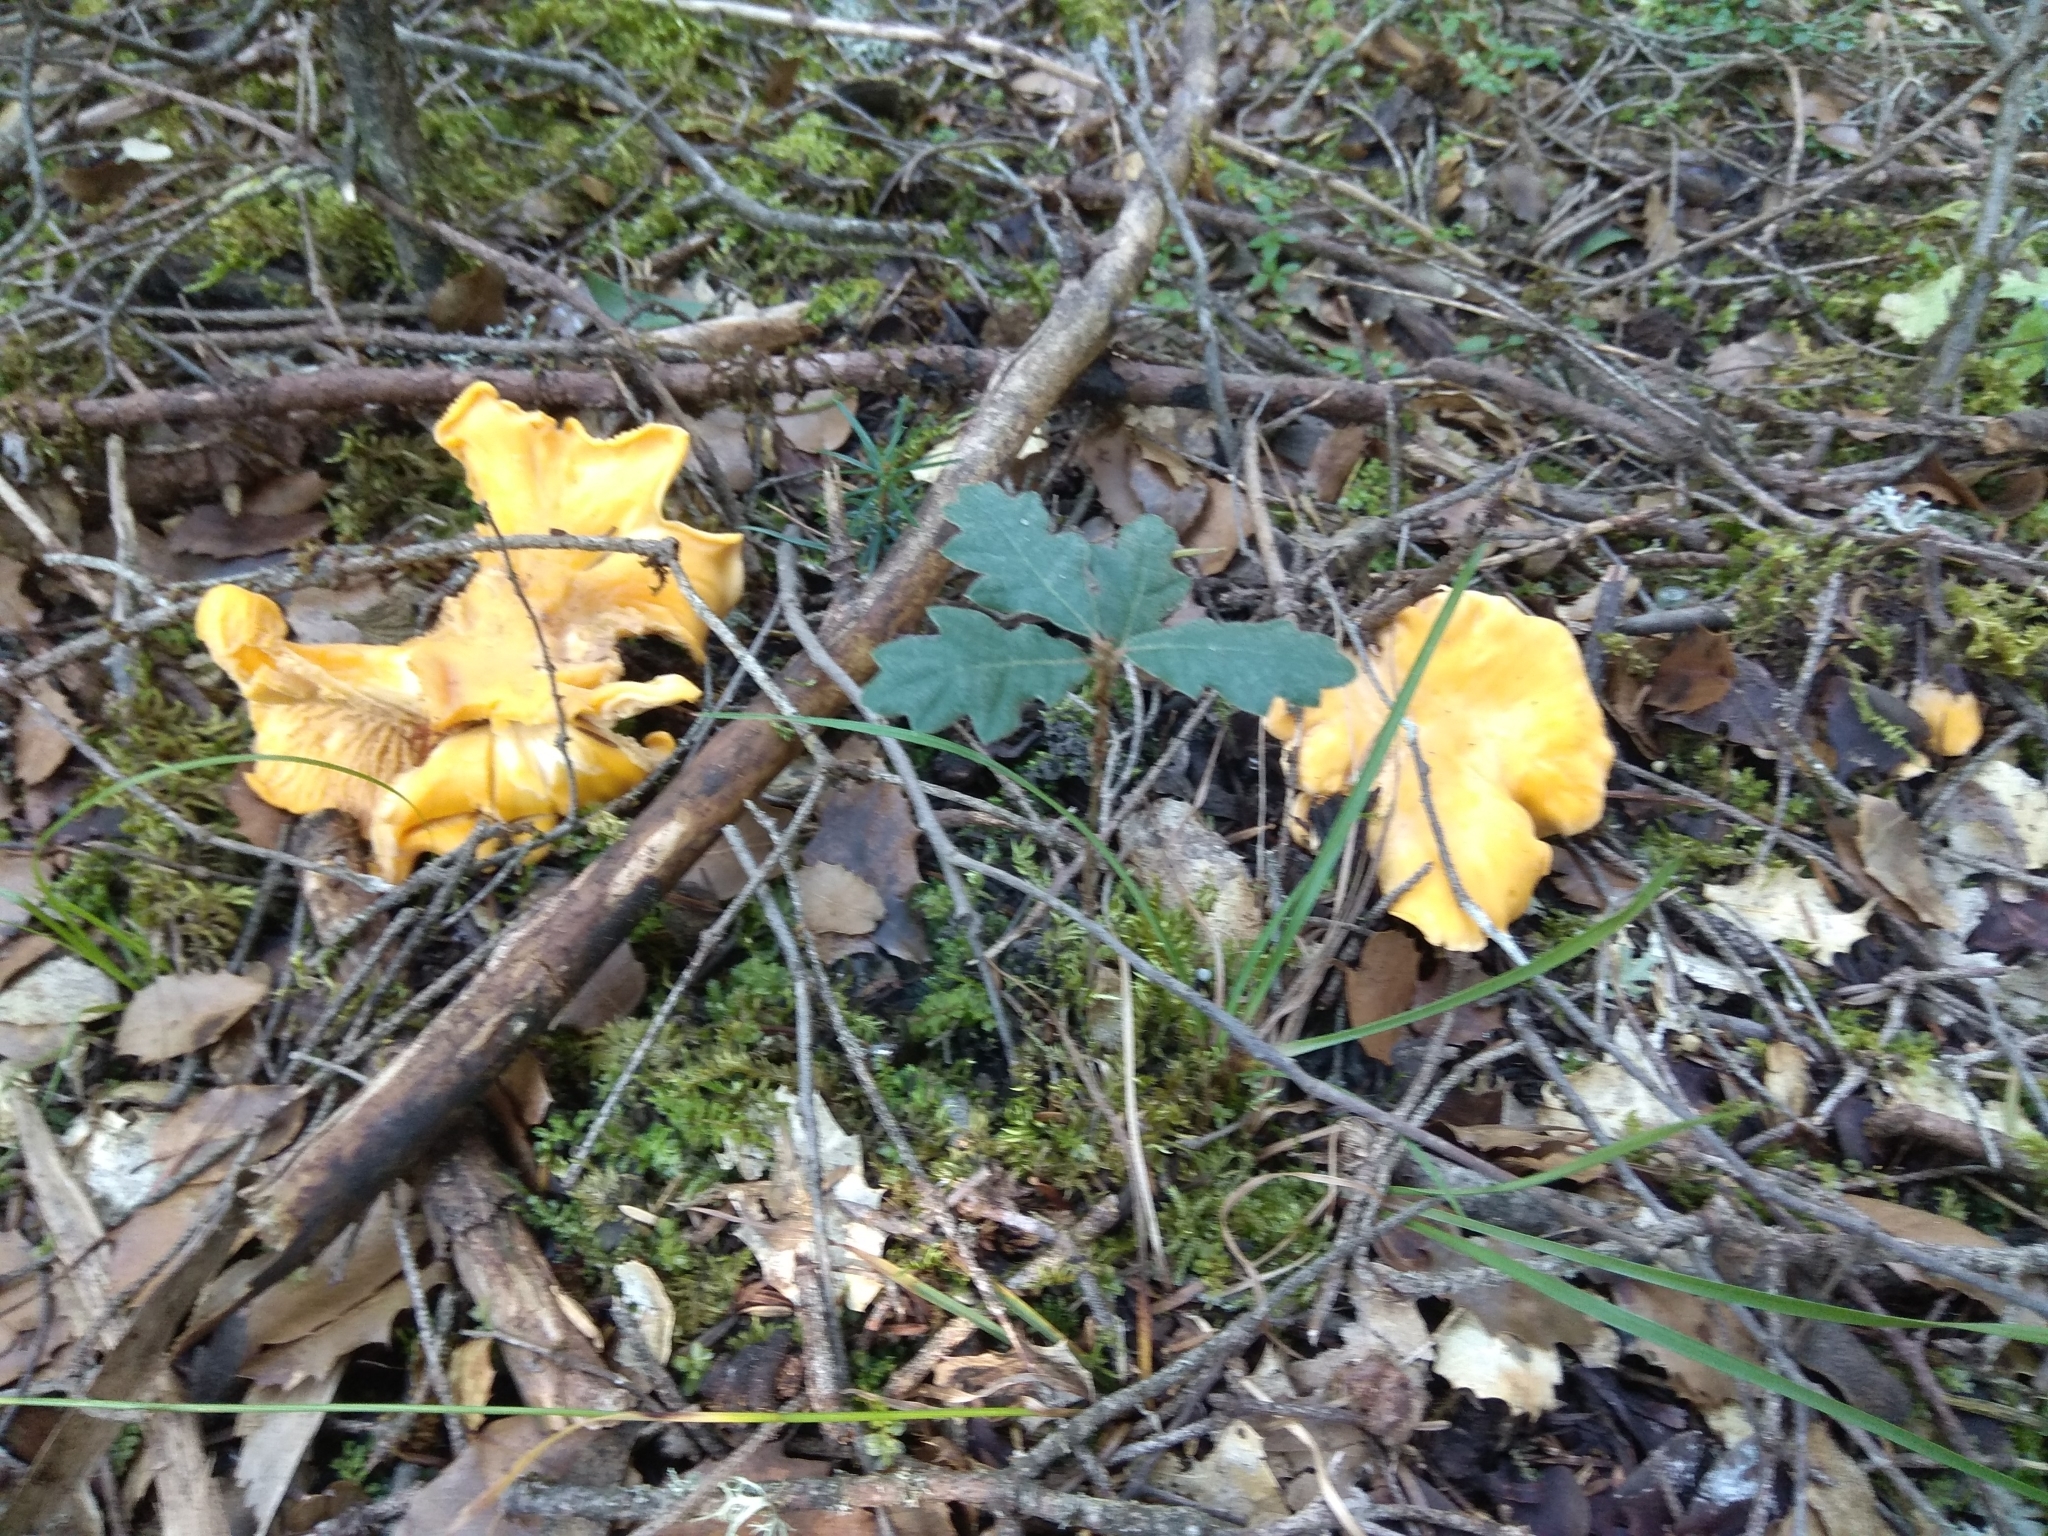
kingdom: Fungi
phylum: Basidiomycota
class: Agaricomycetes
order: Cantharellales
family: Hydnaceae
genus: Cantharellus
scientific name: Cantharellus cibarius
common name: Chanterelle
